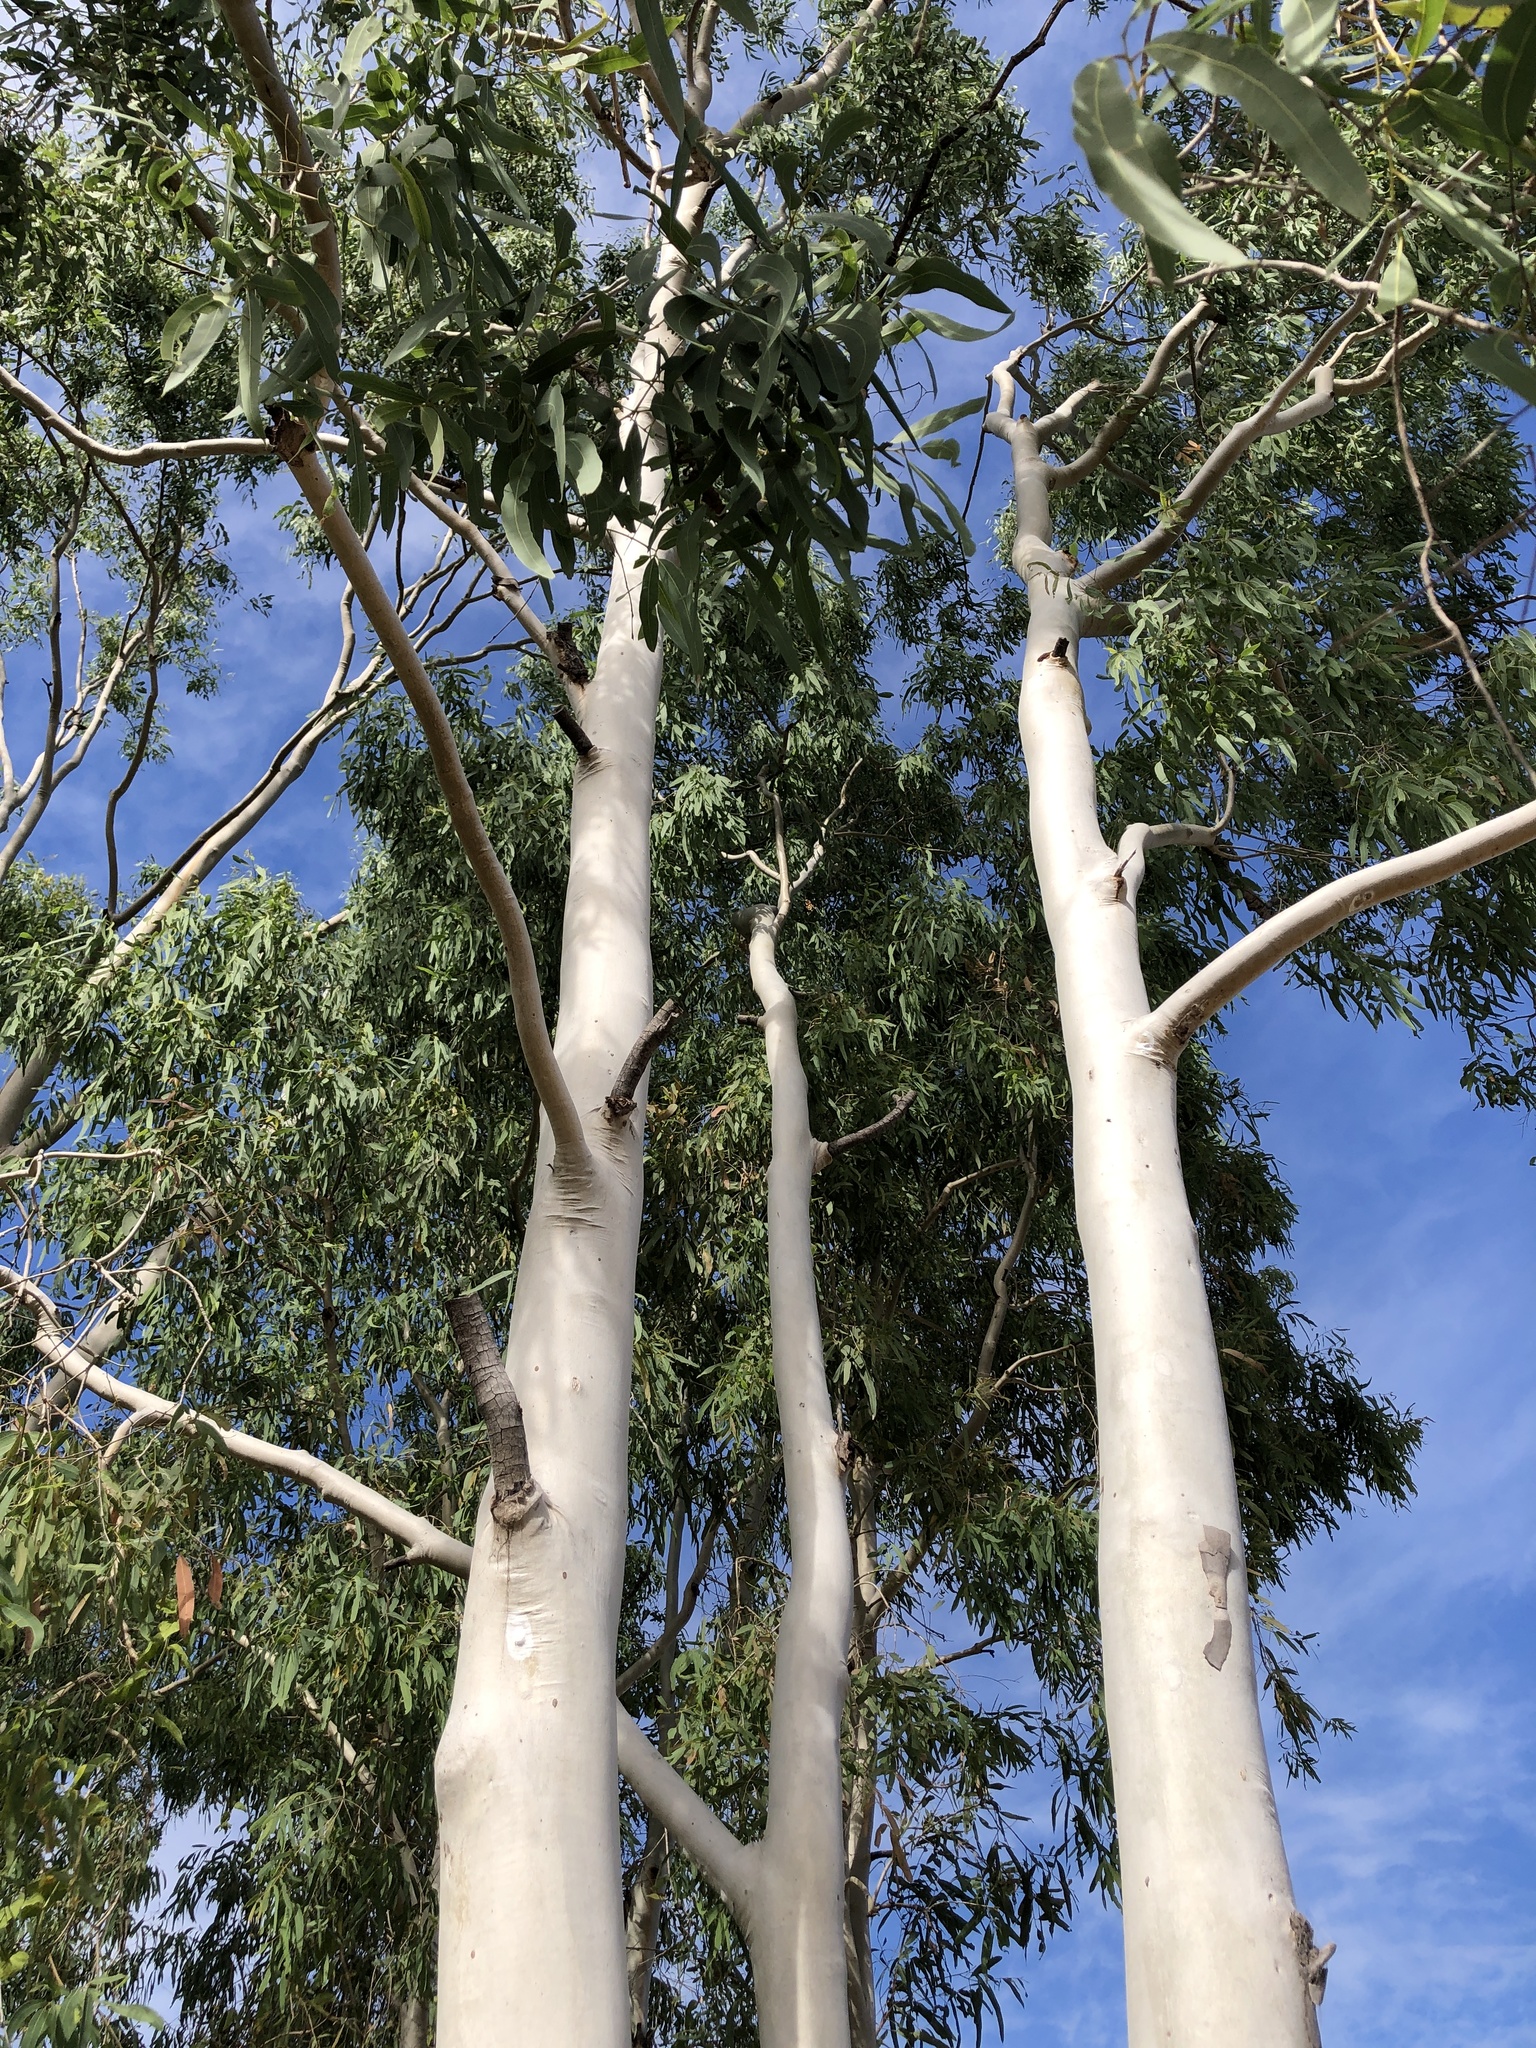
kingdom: Plantae
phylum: Tracheophyta
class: Magnoliopsida
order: Myrtales
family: Myrtaceae
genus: Corymbia
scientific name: Corymbia tessellaris
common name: Carbeen
